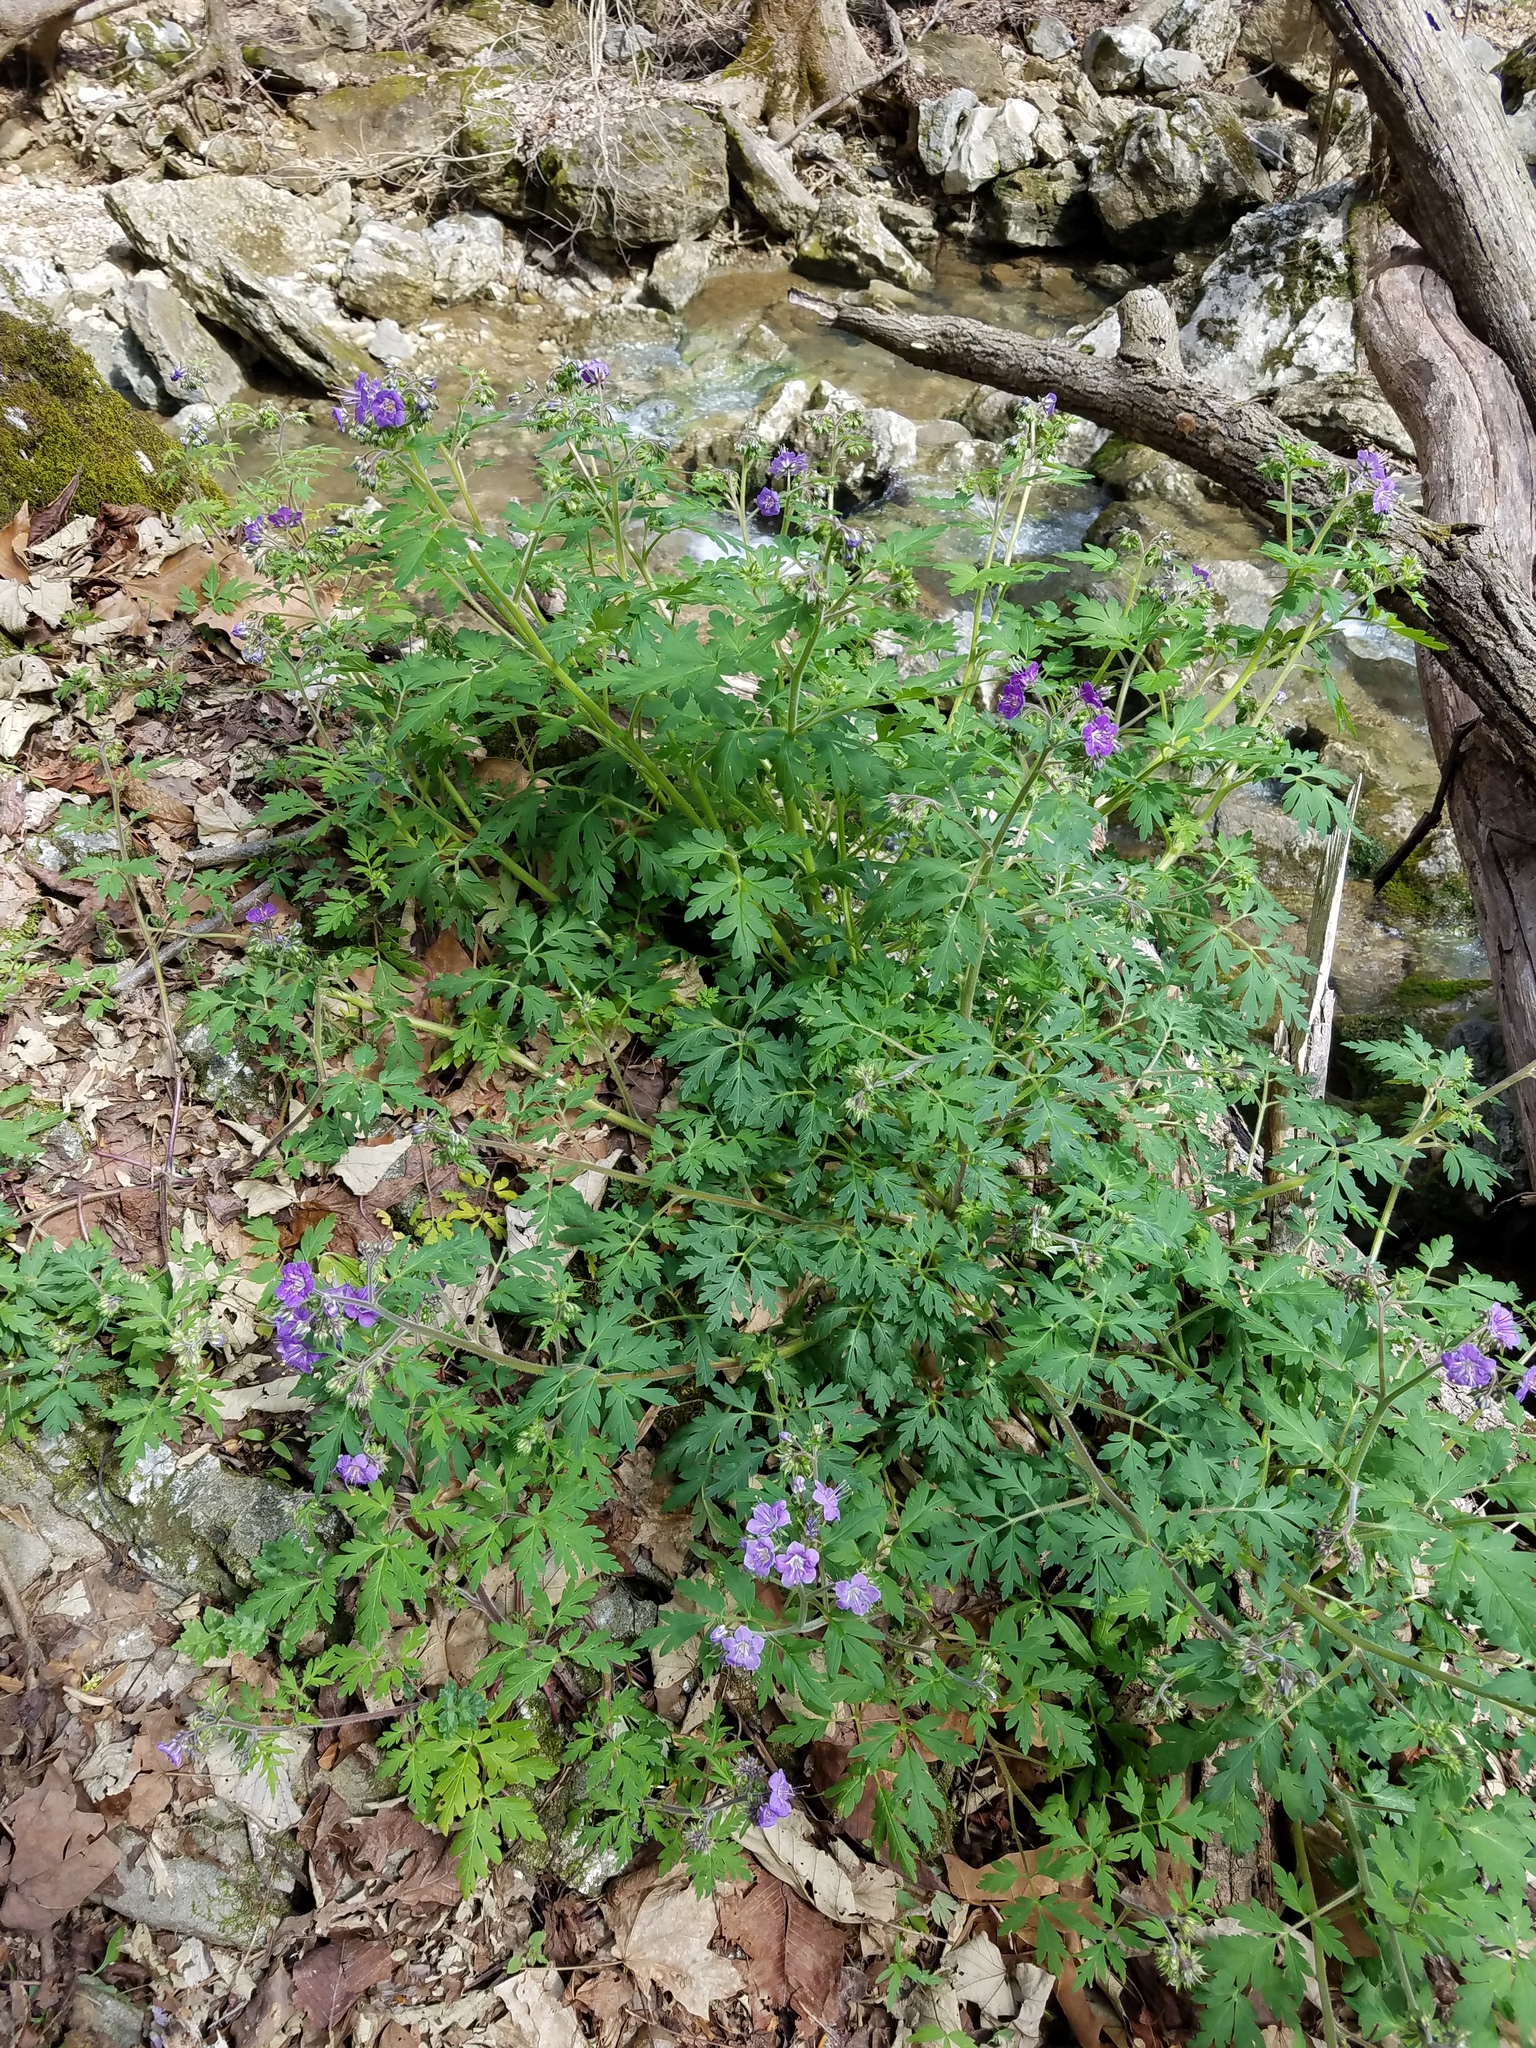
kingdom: Plantae
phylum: Tracheophyta
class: Magnoliopsida
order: Boraginales
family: Hydrophyllaceae
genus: Phacelia
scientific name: Phacelia bipinnatifida
